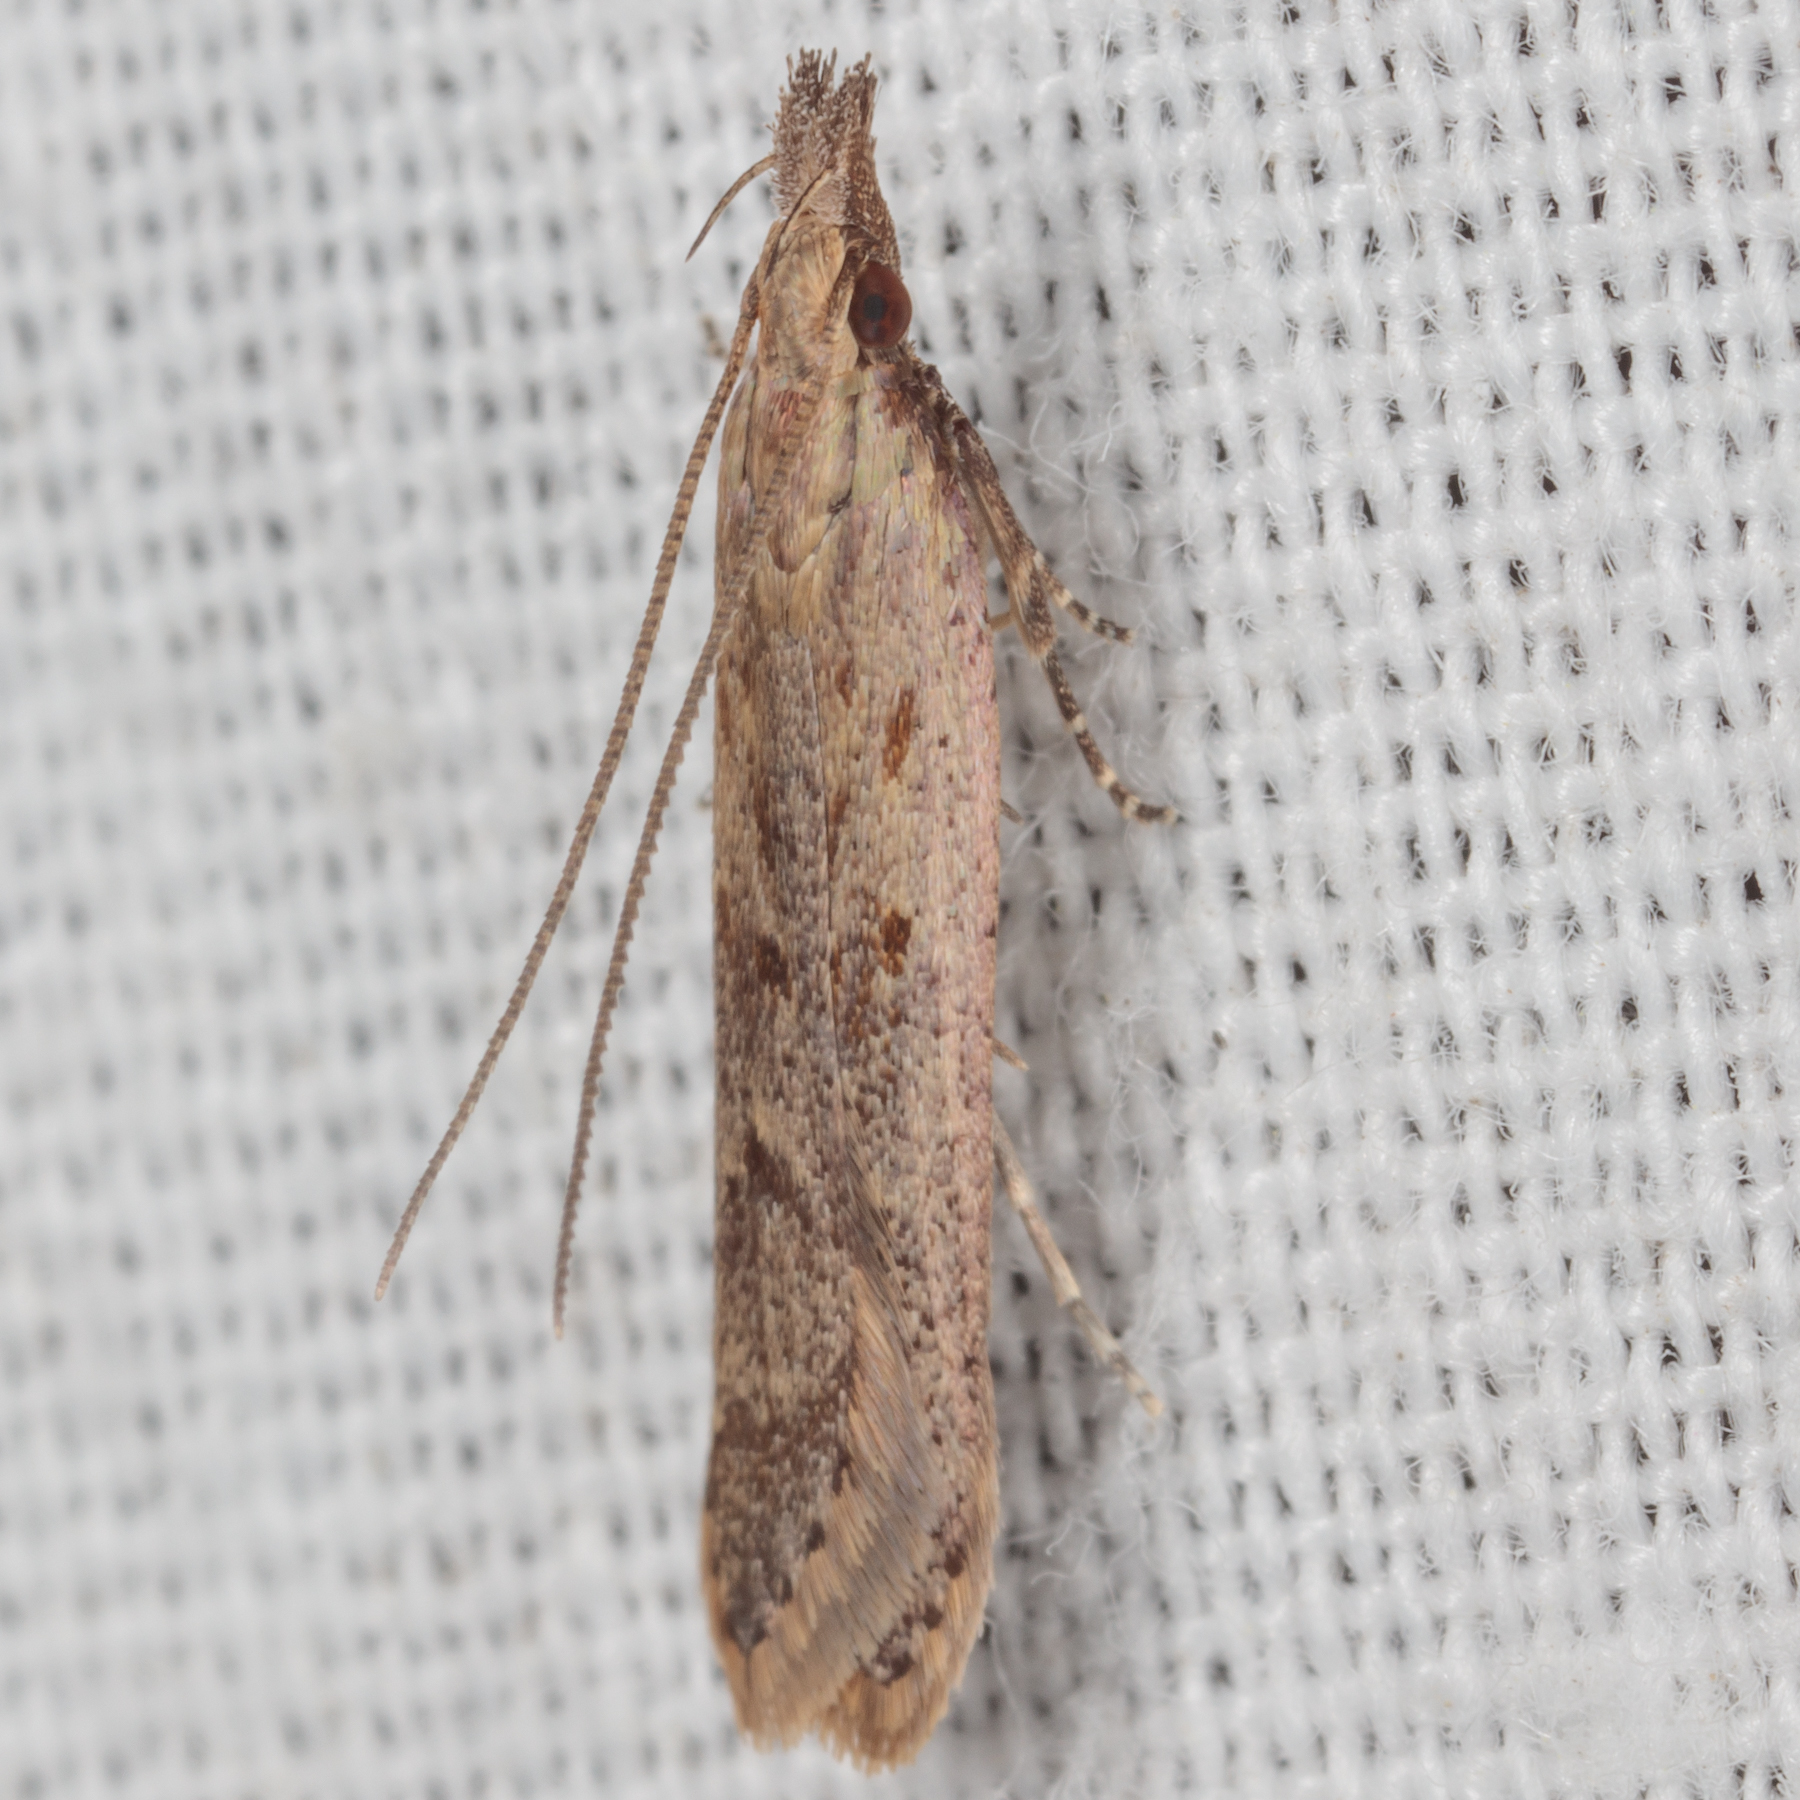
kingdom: Animalia
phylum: Arthropoda
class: Insecta
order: Lepidoptera
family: Gelechiidae
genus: Dichomeris
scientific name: Dichomeris ligulella
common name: Moth
